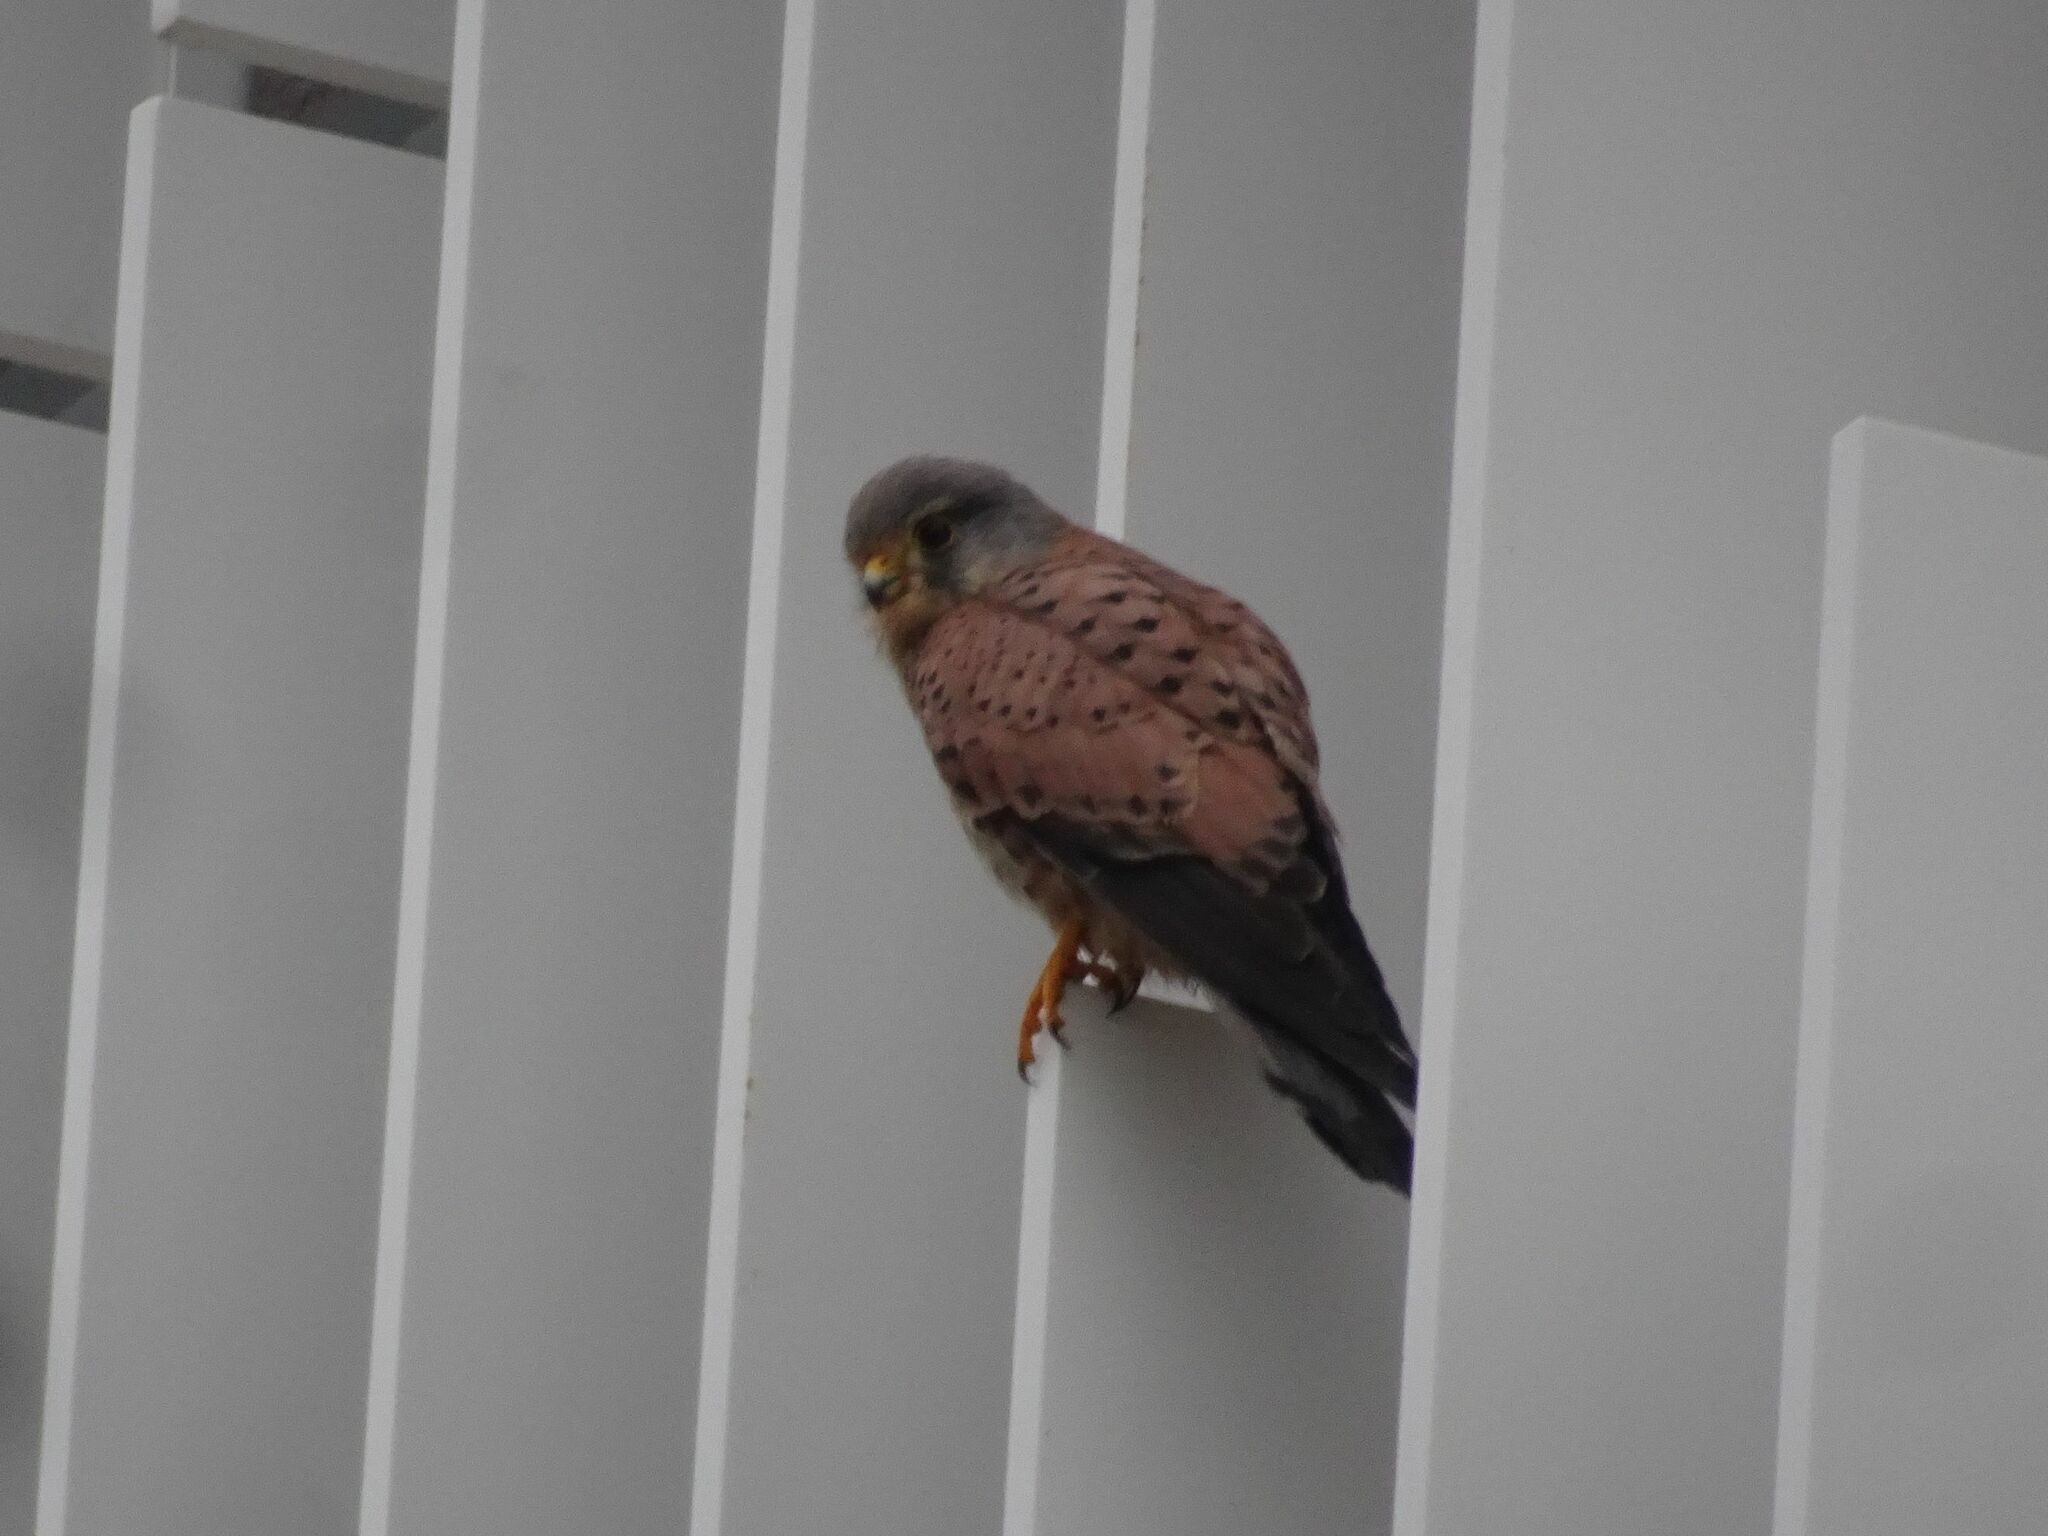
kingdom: Animalia
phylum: Chordata
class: Aves
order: Falconiformes
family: Falconidae
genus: Falco
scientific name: Falco tinnunculus
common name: Common kestrel
